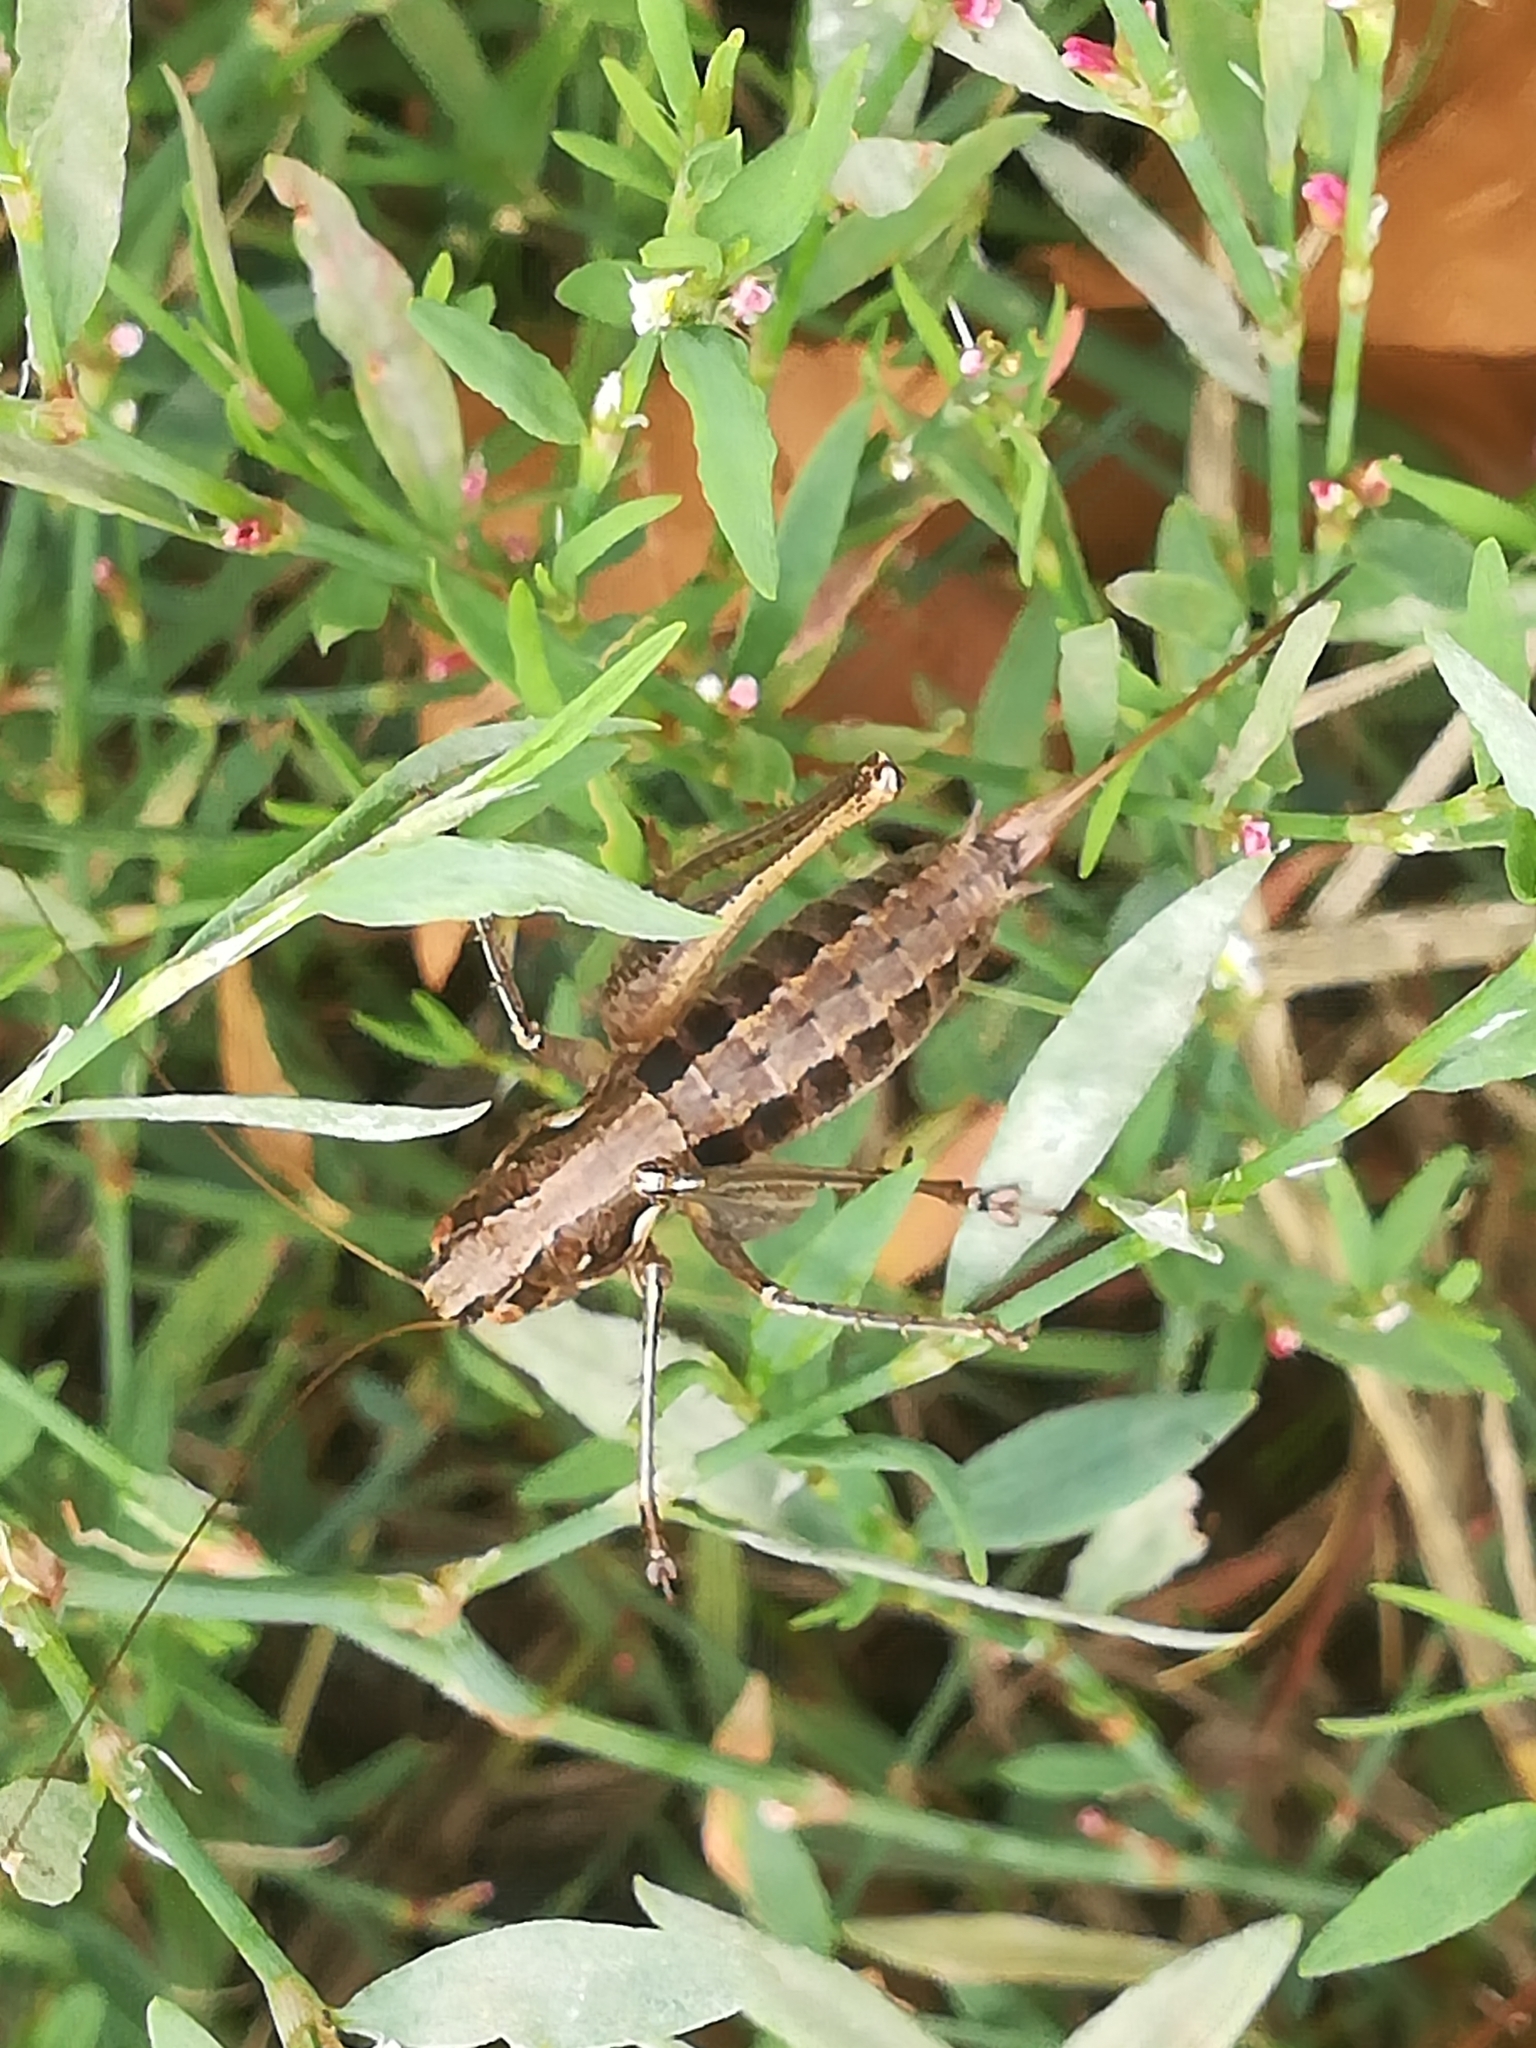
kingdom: Animalia
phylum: Arthropoda
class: Insecta
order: Orthoptera
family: Tettigoniidae
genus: Rhacocleis
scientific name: Rhacocleis germanica
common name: Mediterranean bush-cricket
